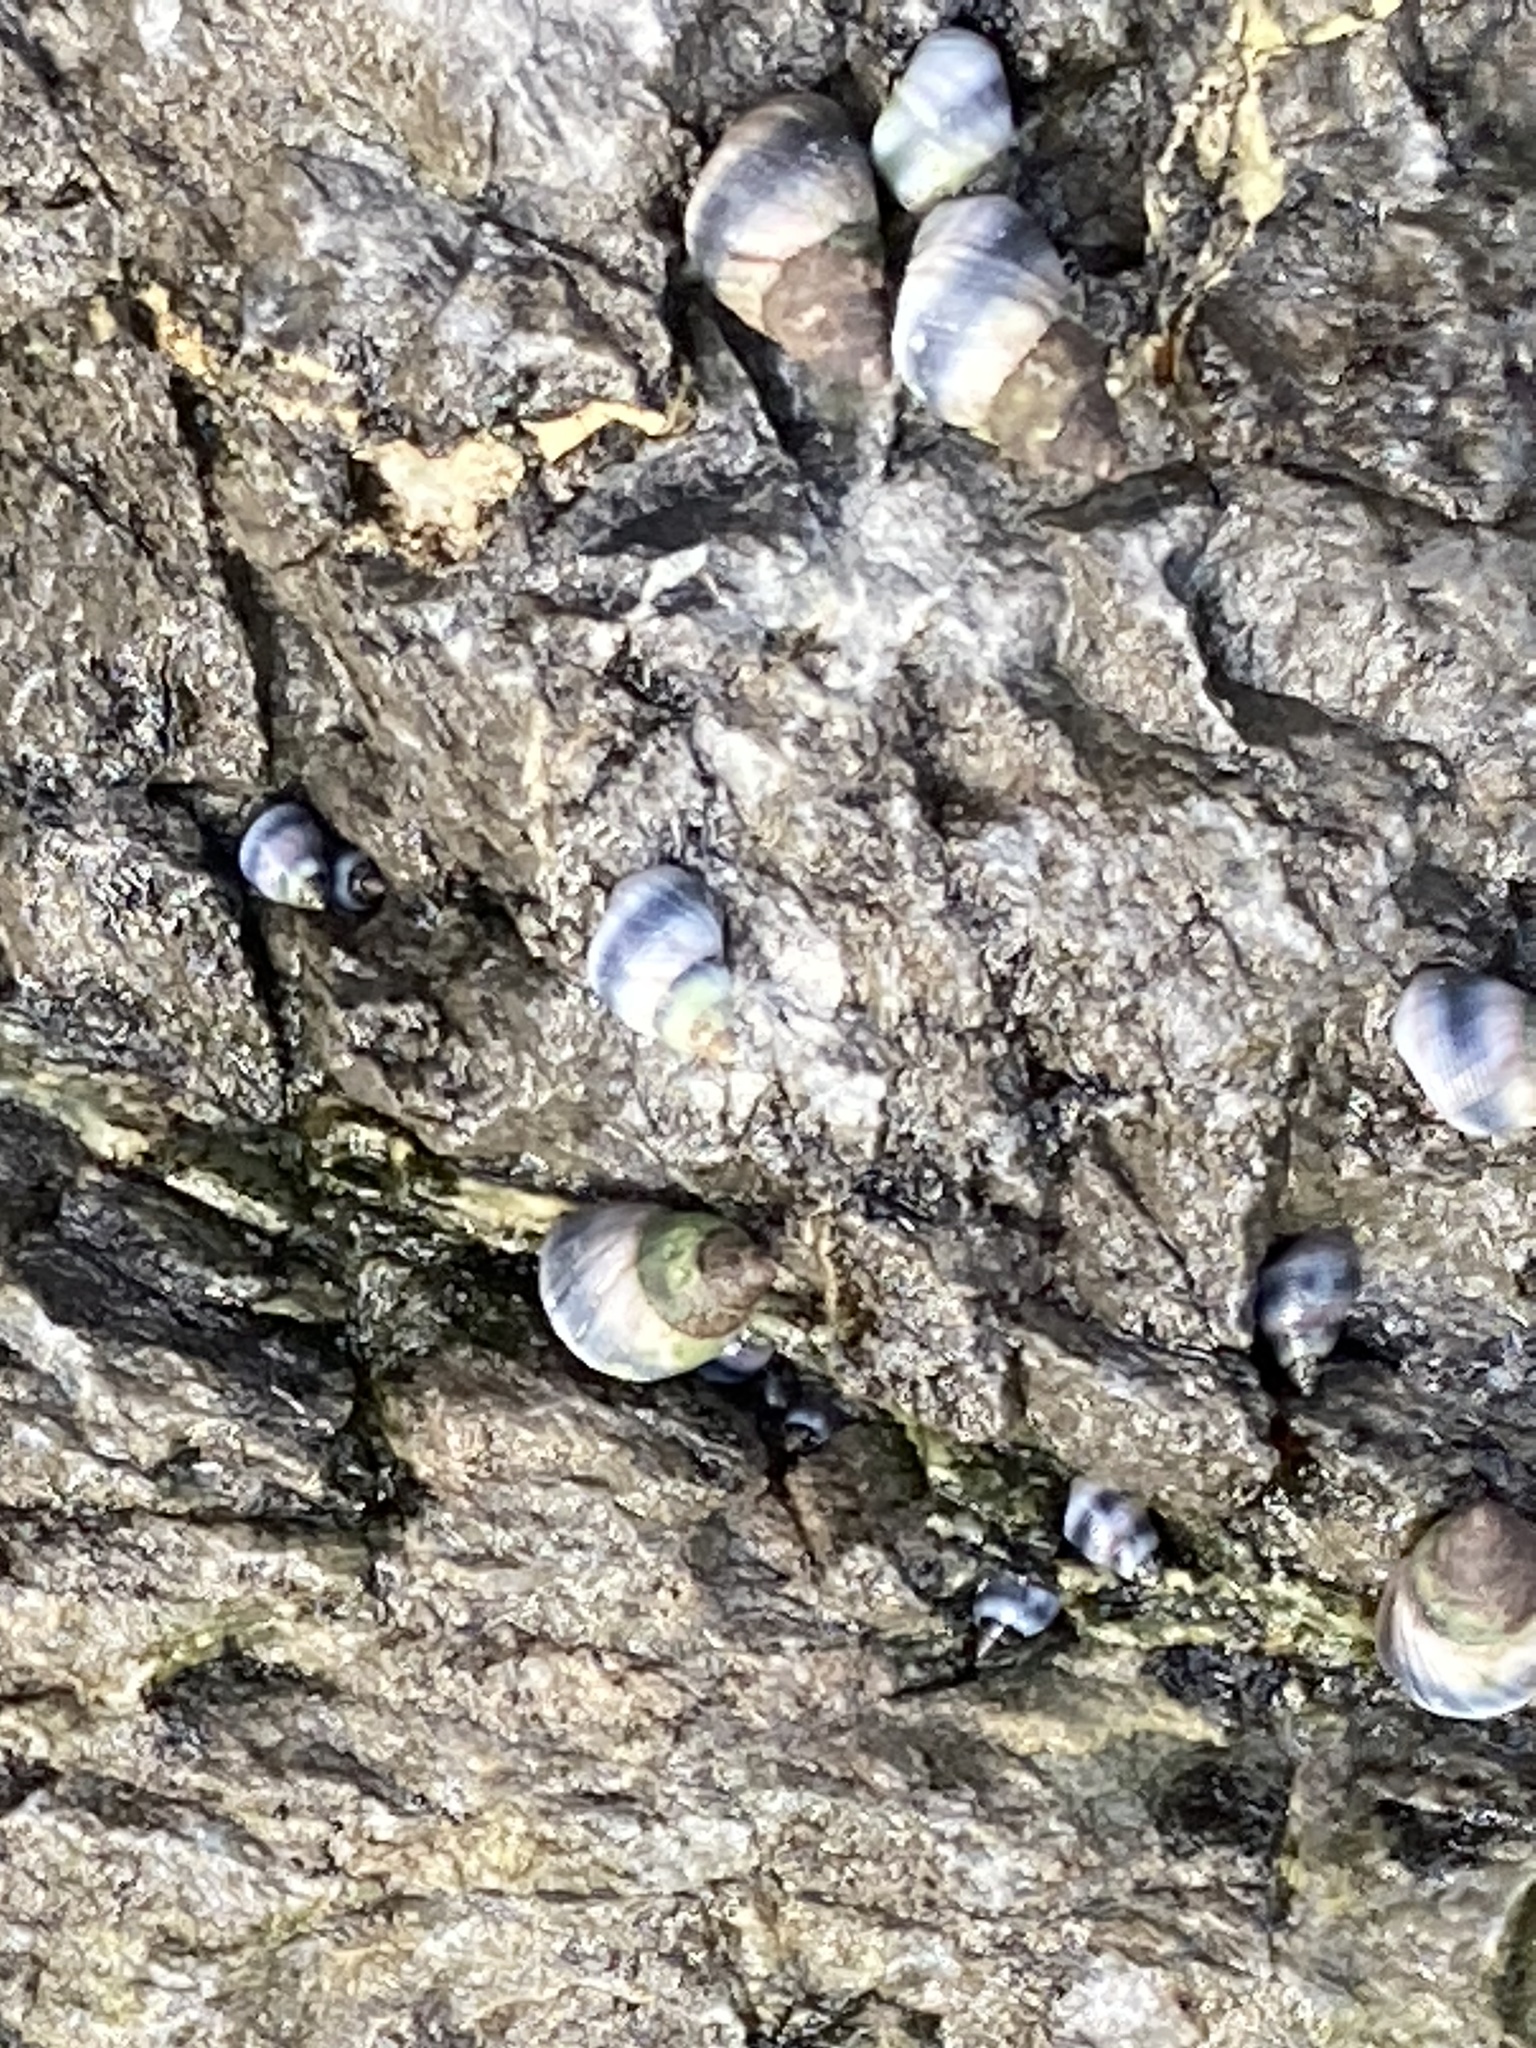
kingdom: Animalia
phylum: Mollusca
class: Gastropoda
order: Littorinimorpha
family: Littorinidae
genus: Austrolittorina
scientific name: Austrolittorina antipodum
